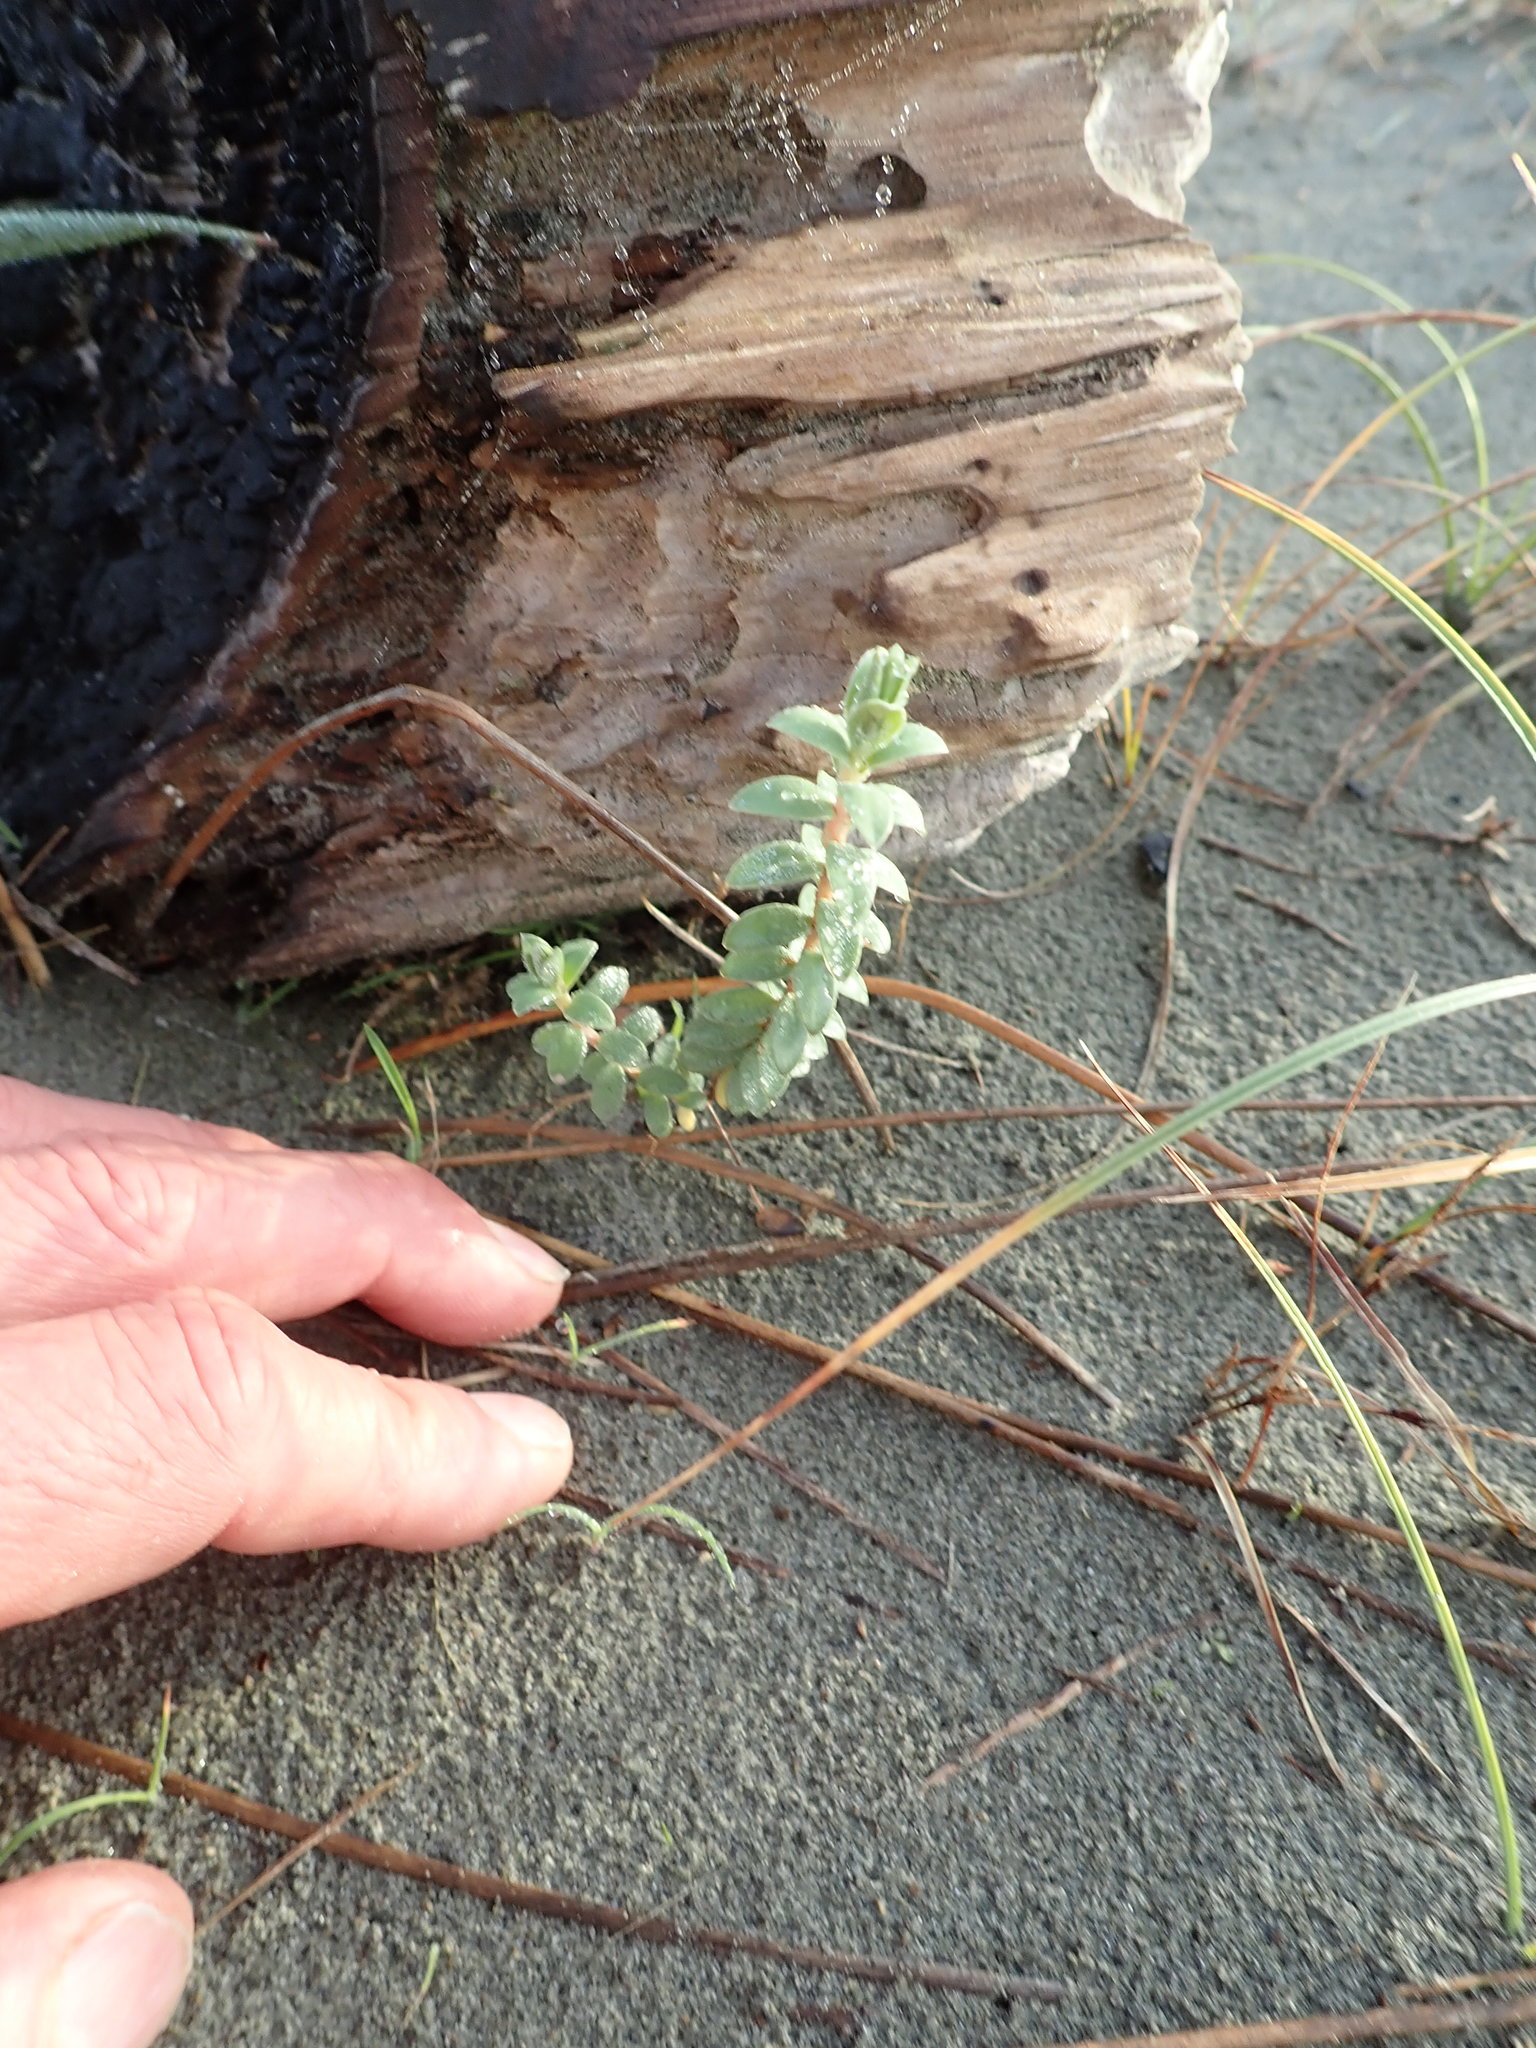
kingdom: Plantae
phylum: Tracheophyta
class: Magnoliopsida
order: Malvales
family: Thymelaeaceae
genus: Pimelea
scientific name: Pimelea villosa
